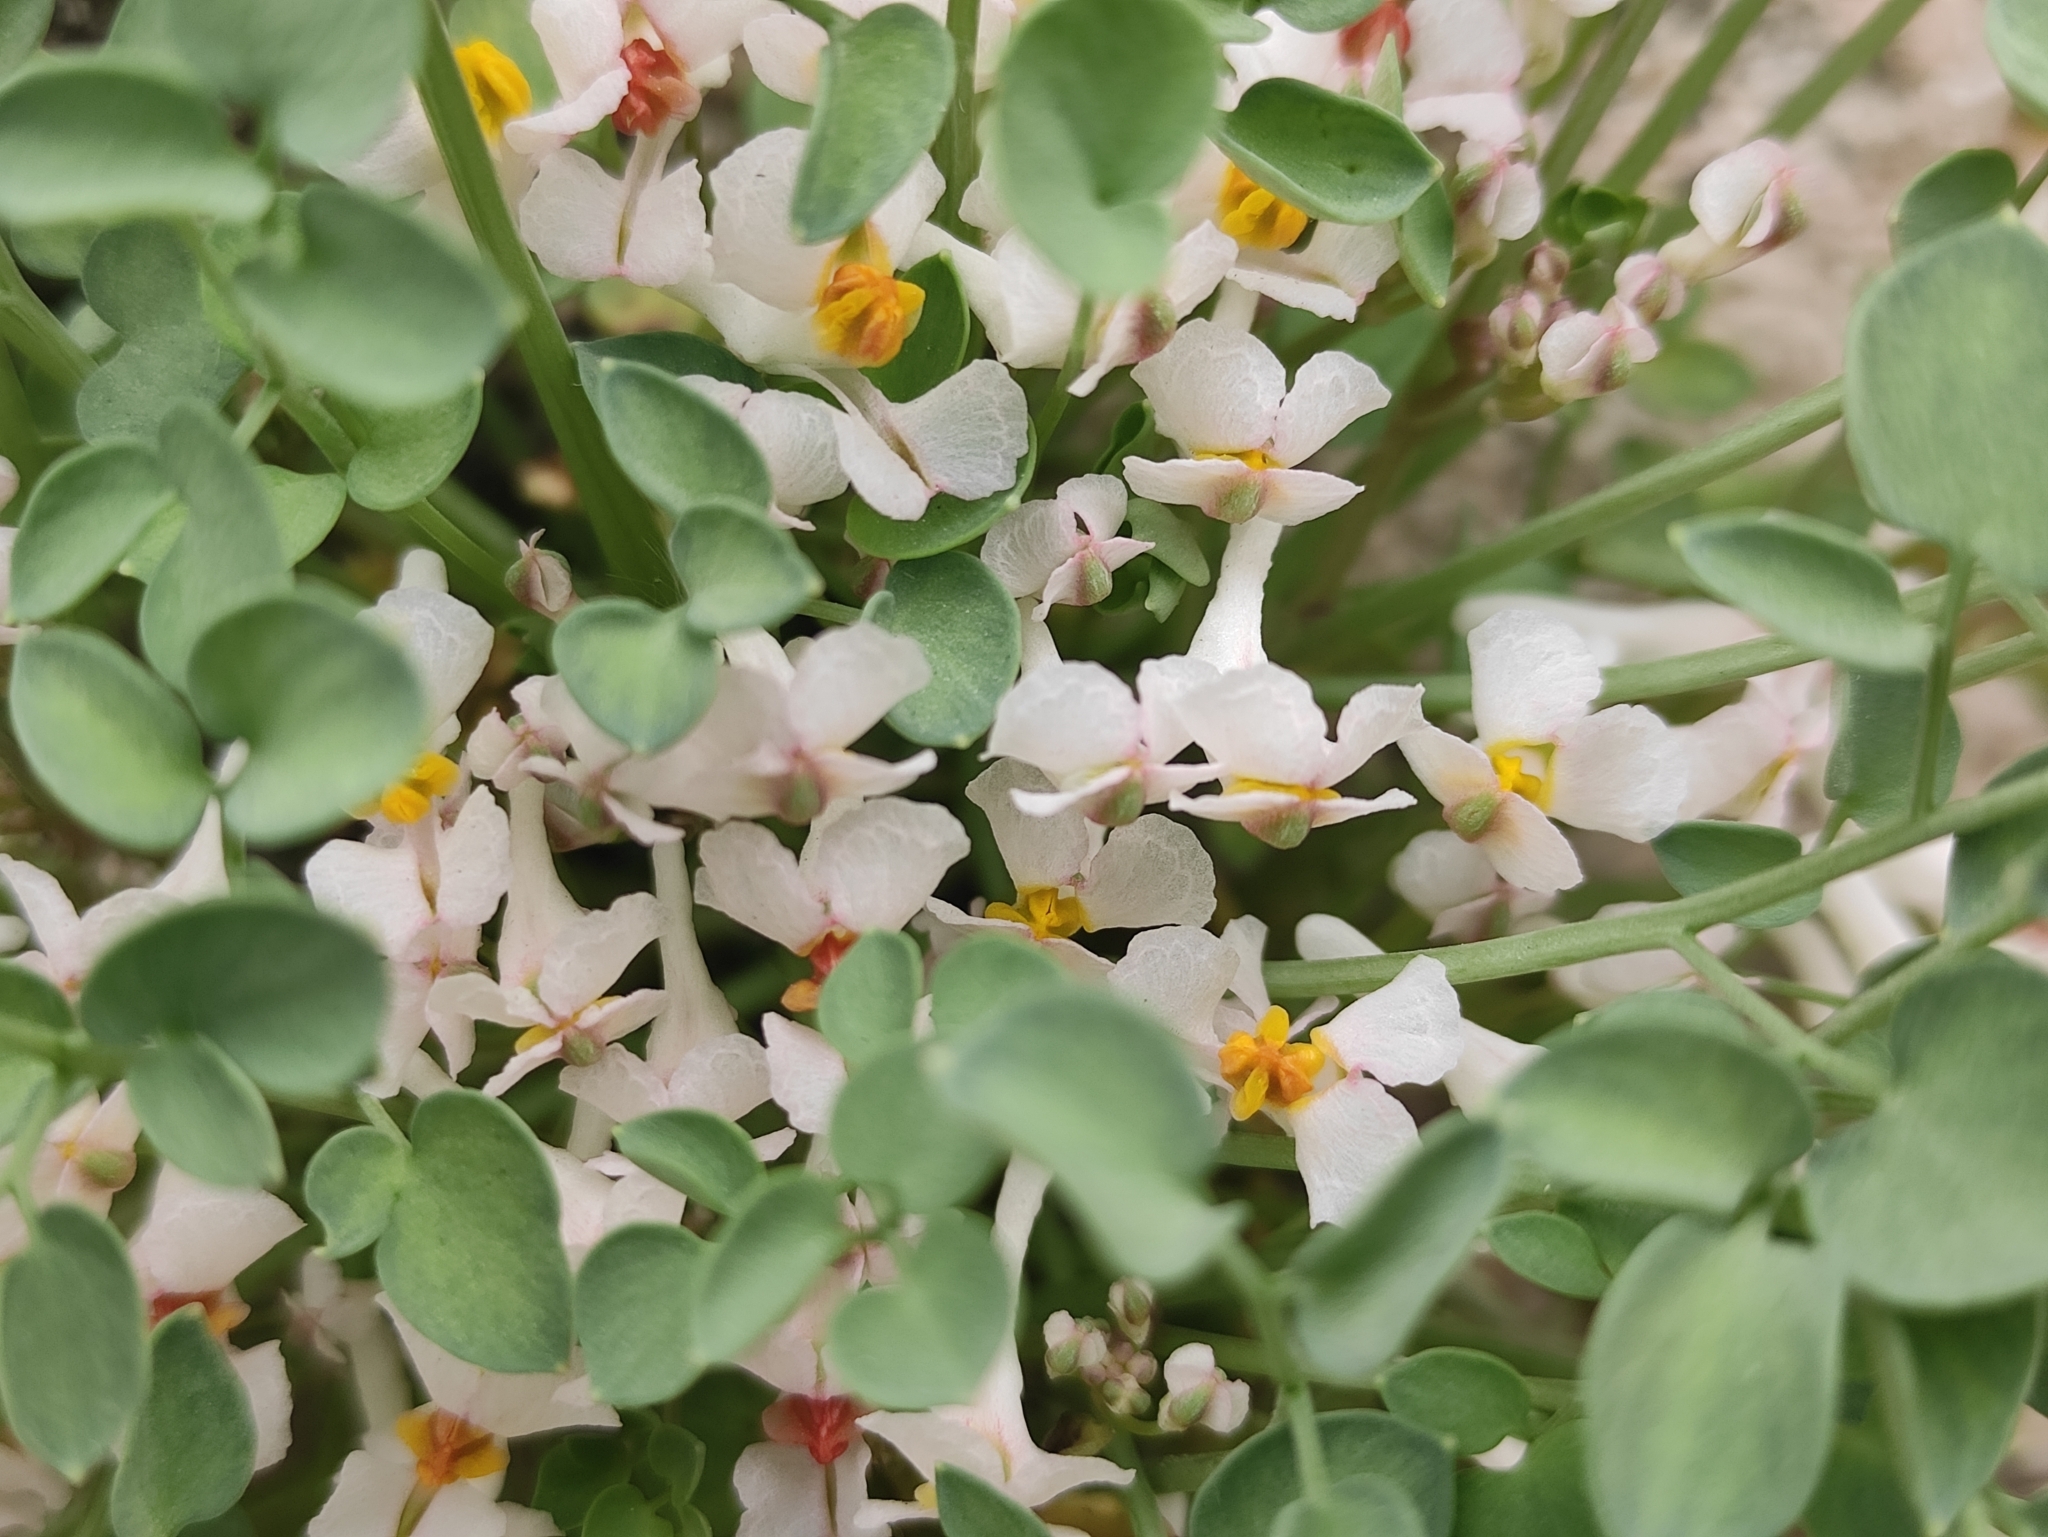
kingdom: Plantae
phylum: Tracheophyta
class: Magnoliopsida
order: Ranunculales
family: Papaveraceae
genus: Sarcocapnos
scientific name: Sarcocapnos enneaphylla
